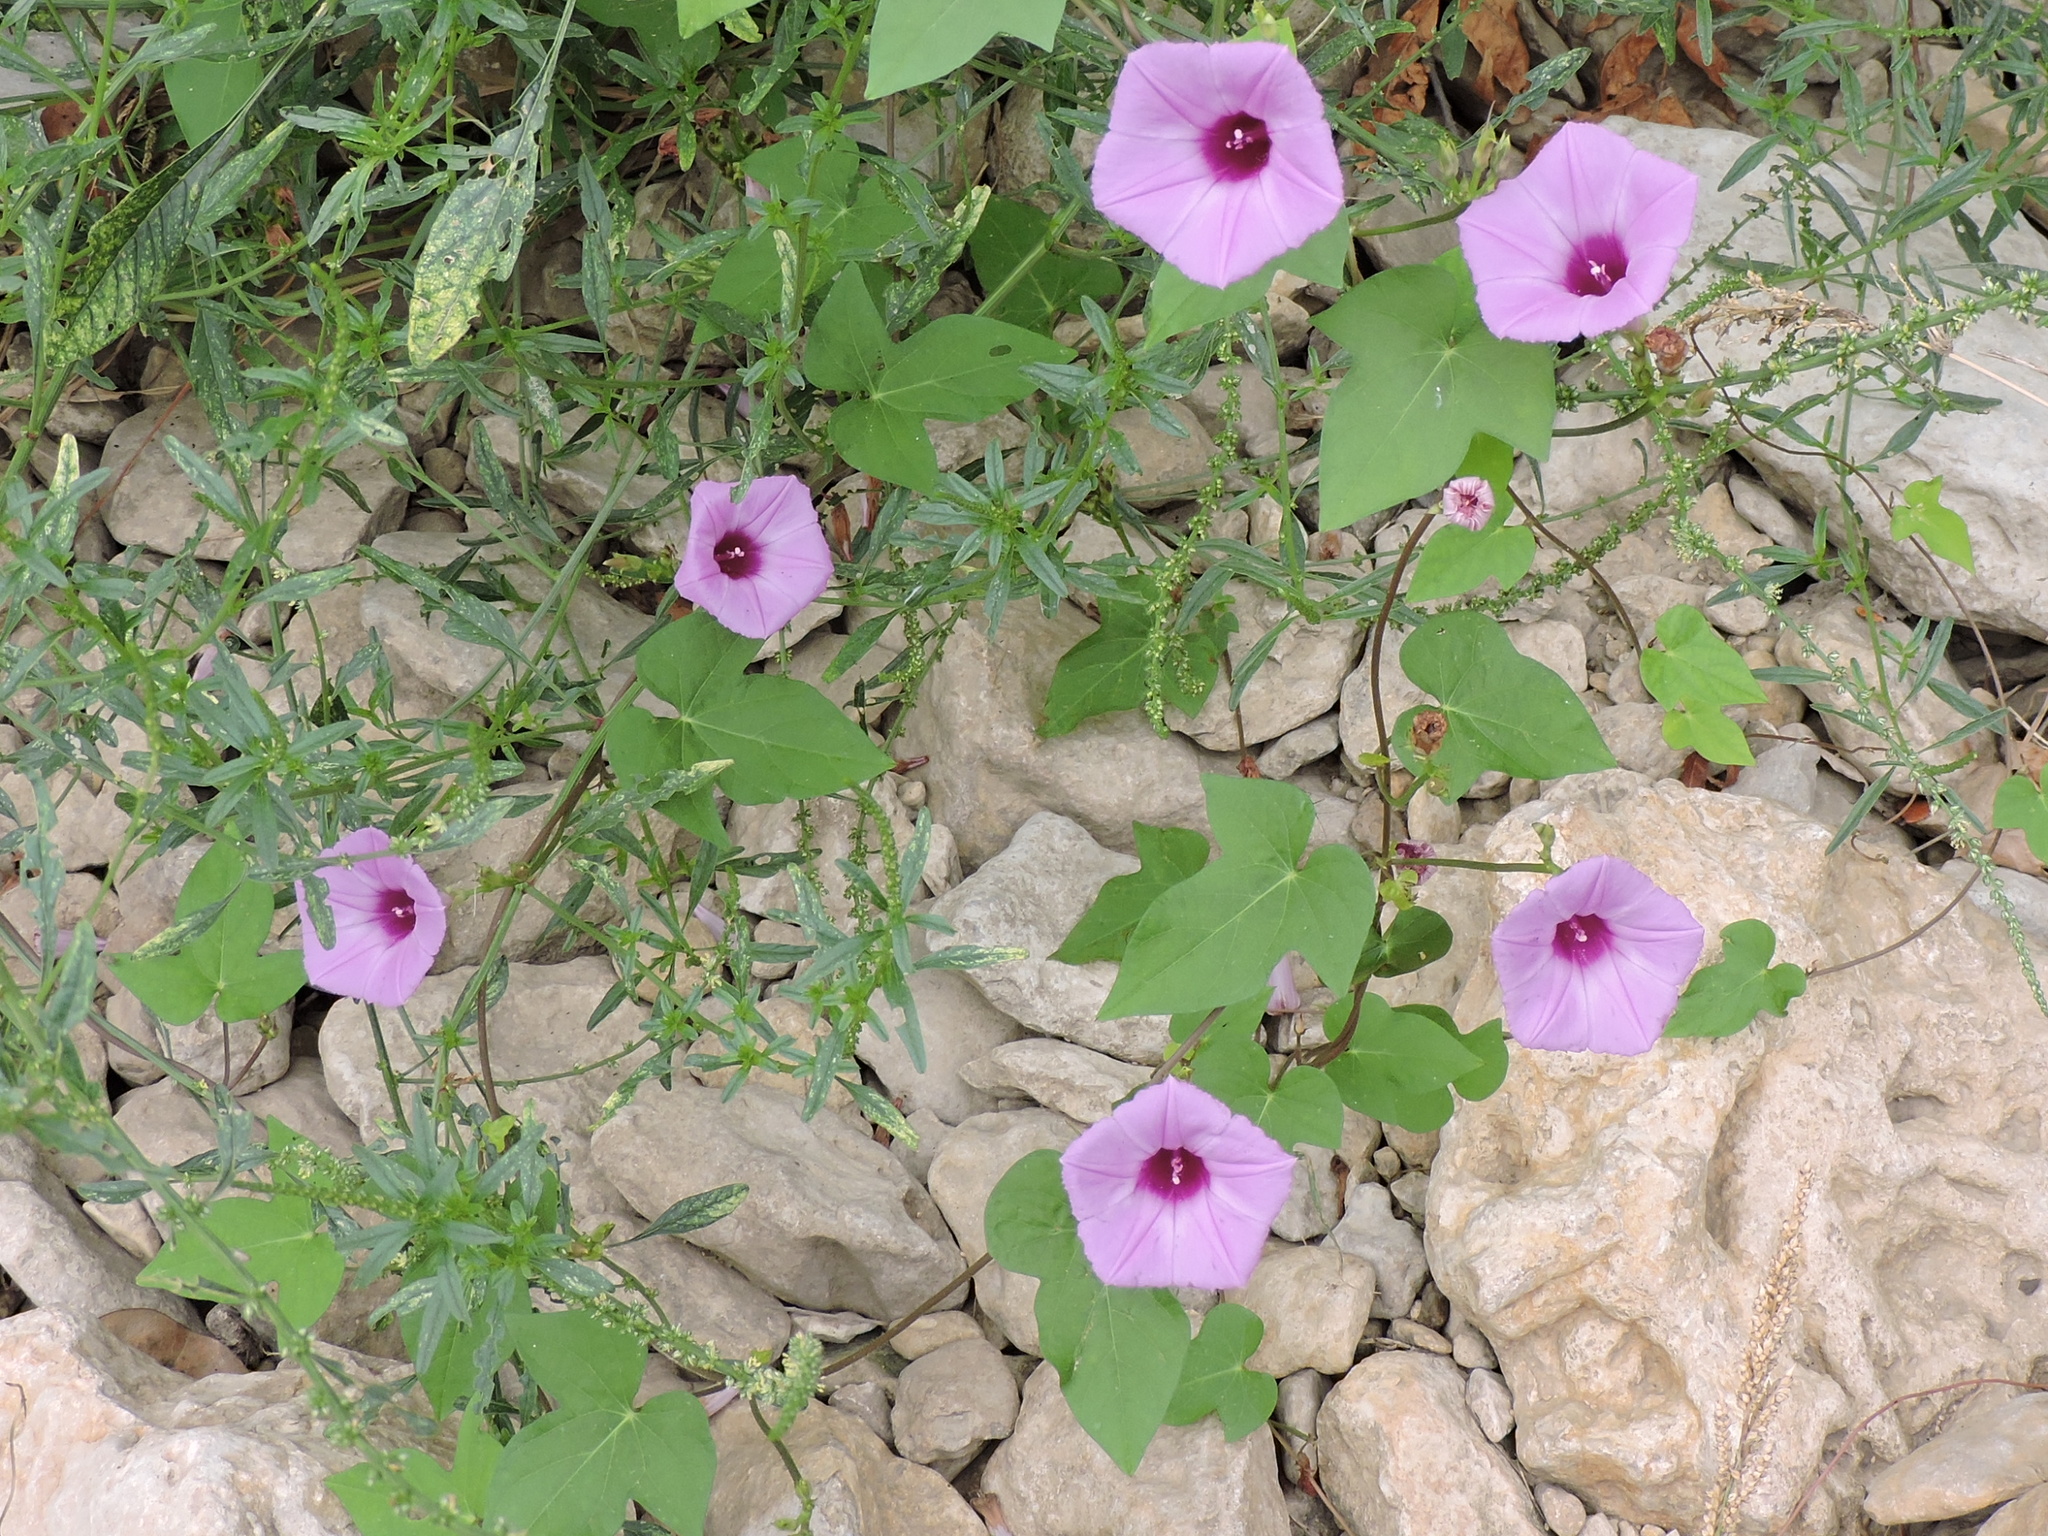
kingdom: Plantae
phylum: Tracheophyta
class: Magnoliopsida
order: Solanales
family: Convolvulaceae
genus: Ipomoea
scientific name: Ipomoea cordatotriloba
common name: Cotton morning glory
